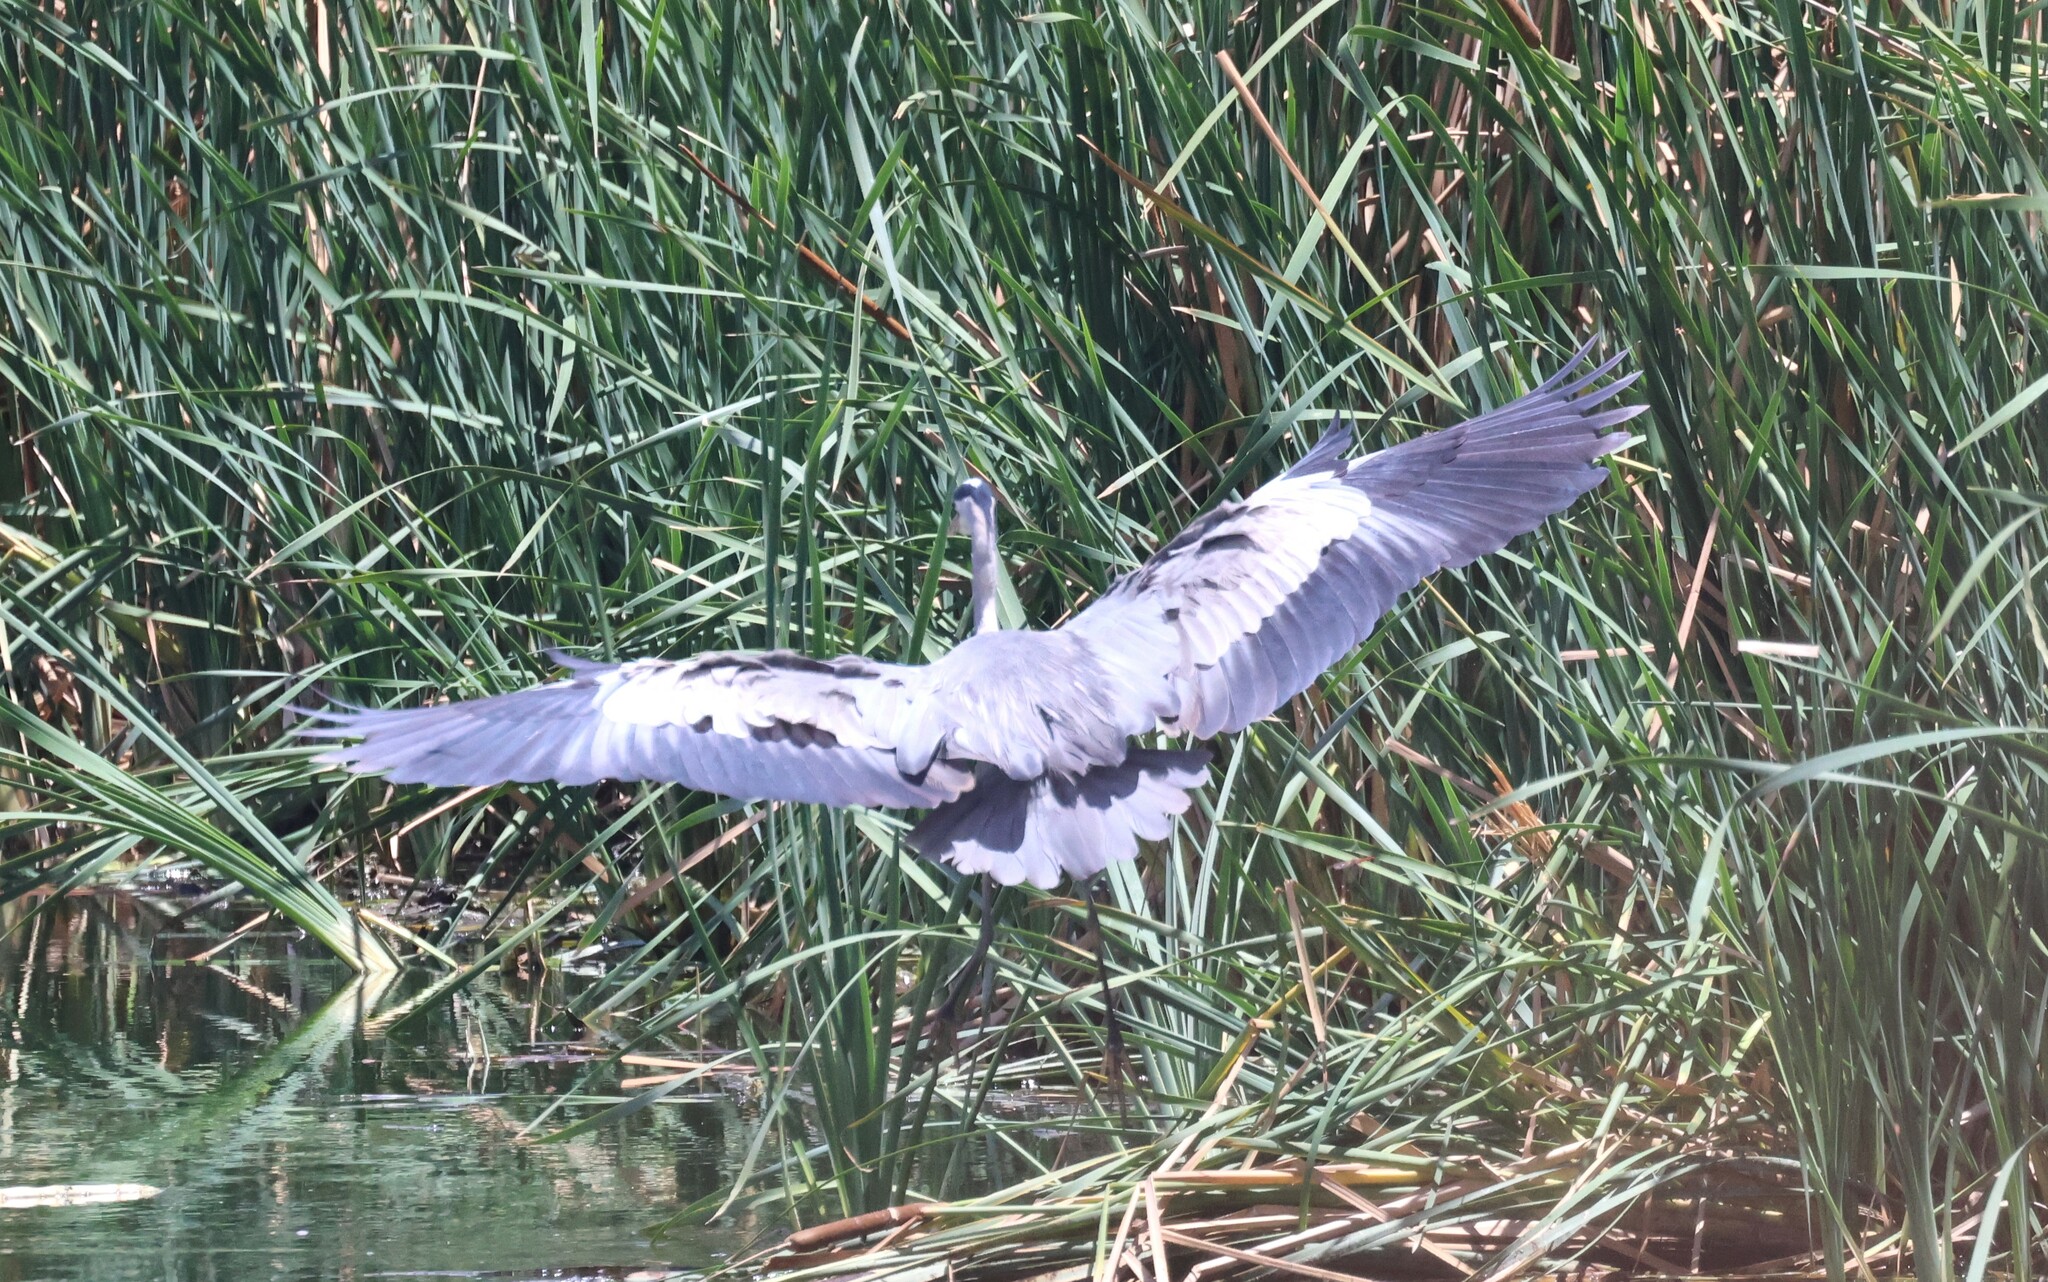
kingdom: Animalia
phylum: Chordata
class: Aves
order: Pelecaniformes
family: Ardeidae
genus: Ardea
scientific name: Ardea cinerea
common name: Grey heron
